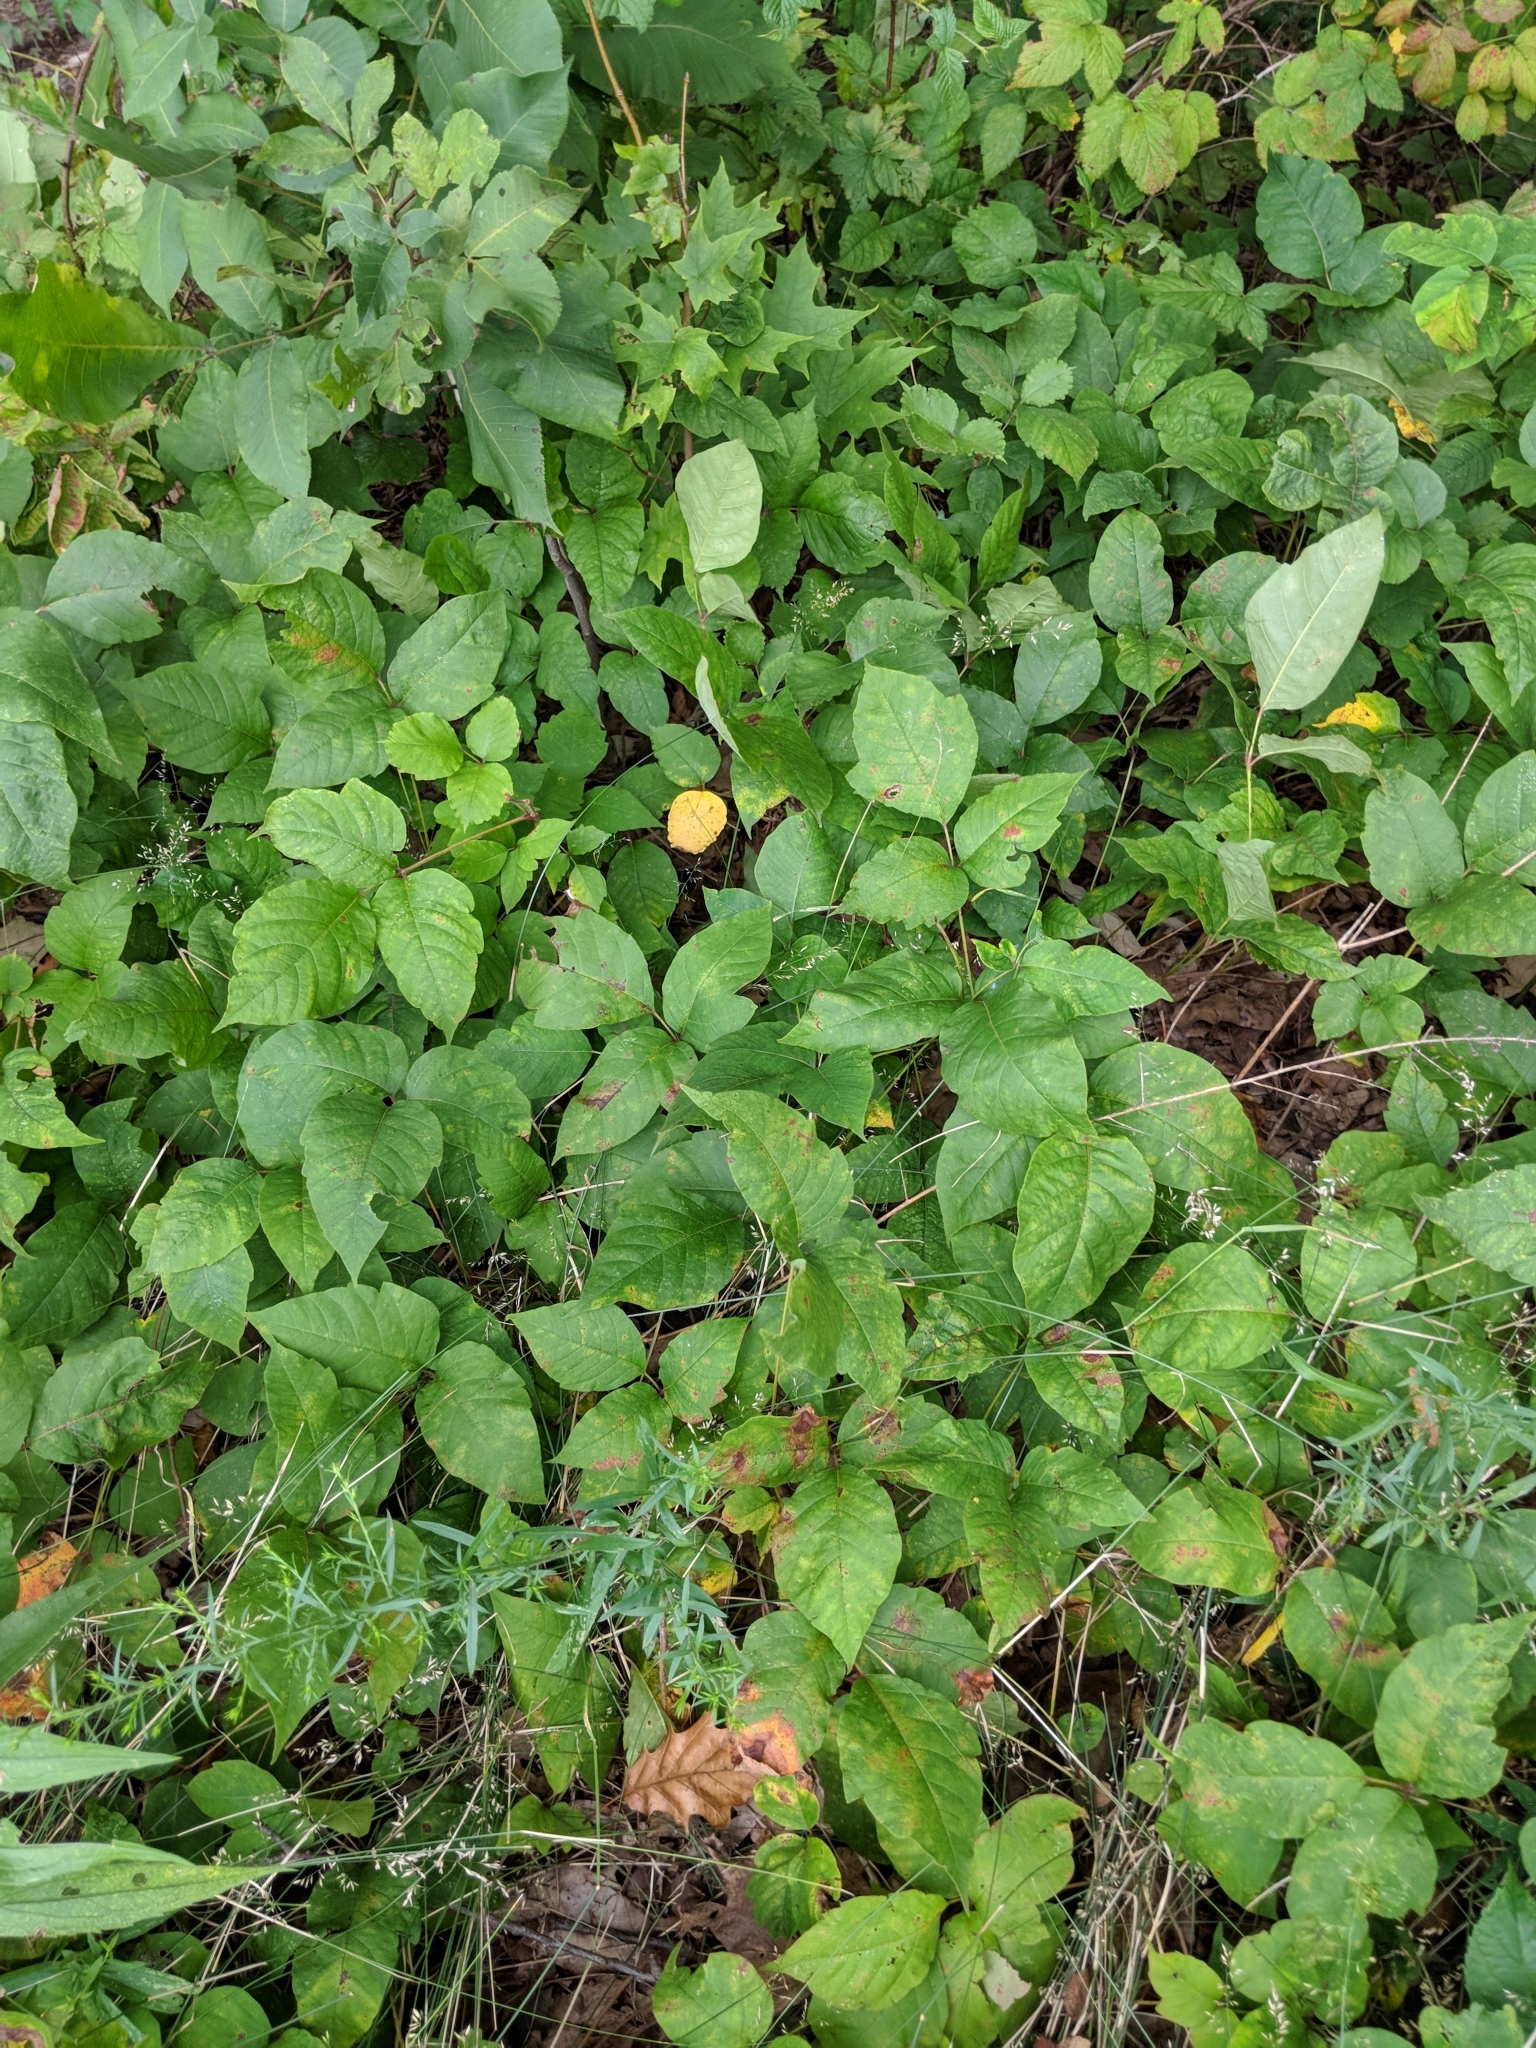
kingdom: Plantae
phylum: Tracheophyta
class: Magnoliopsida
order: Sapindales
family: Anacardiaceae
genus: Toxicodendron
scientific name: Toxicodendron radicans
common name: Poison ivy
